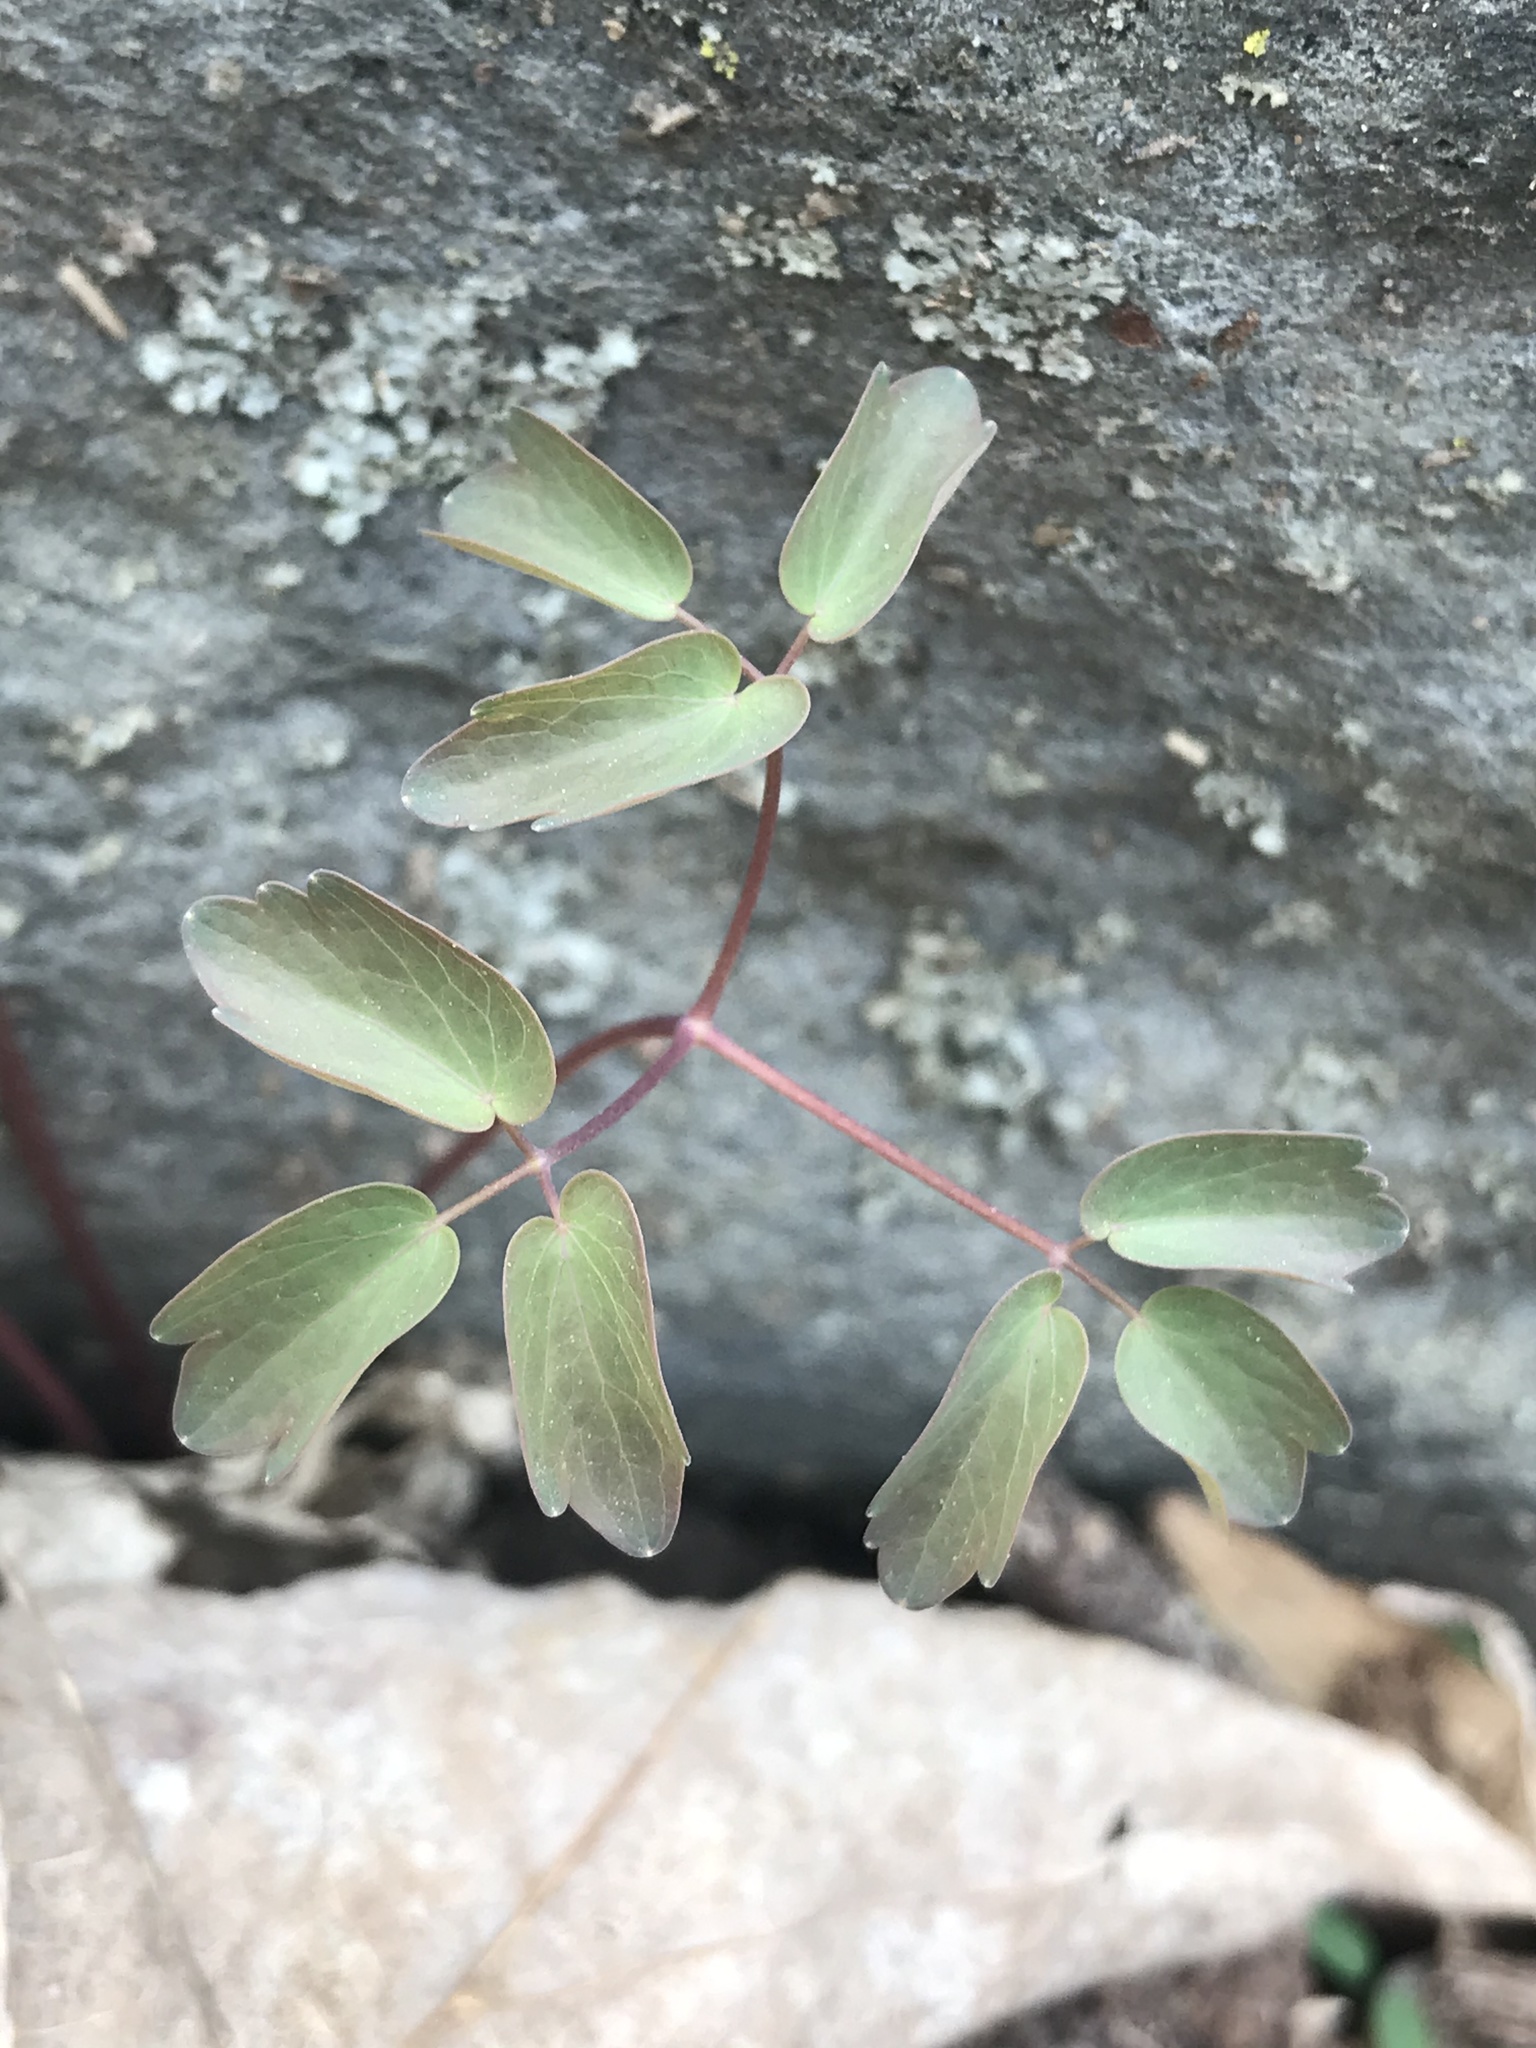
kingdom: Plantae
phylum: Tracheophyta
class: Magnoliopsida
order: Ranunculales
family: Ranunculaceae
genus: Thalictrum
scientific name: Thalictrum thalictroides
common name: Rue-anemone
